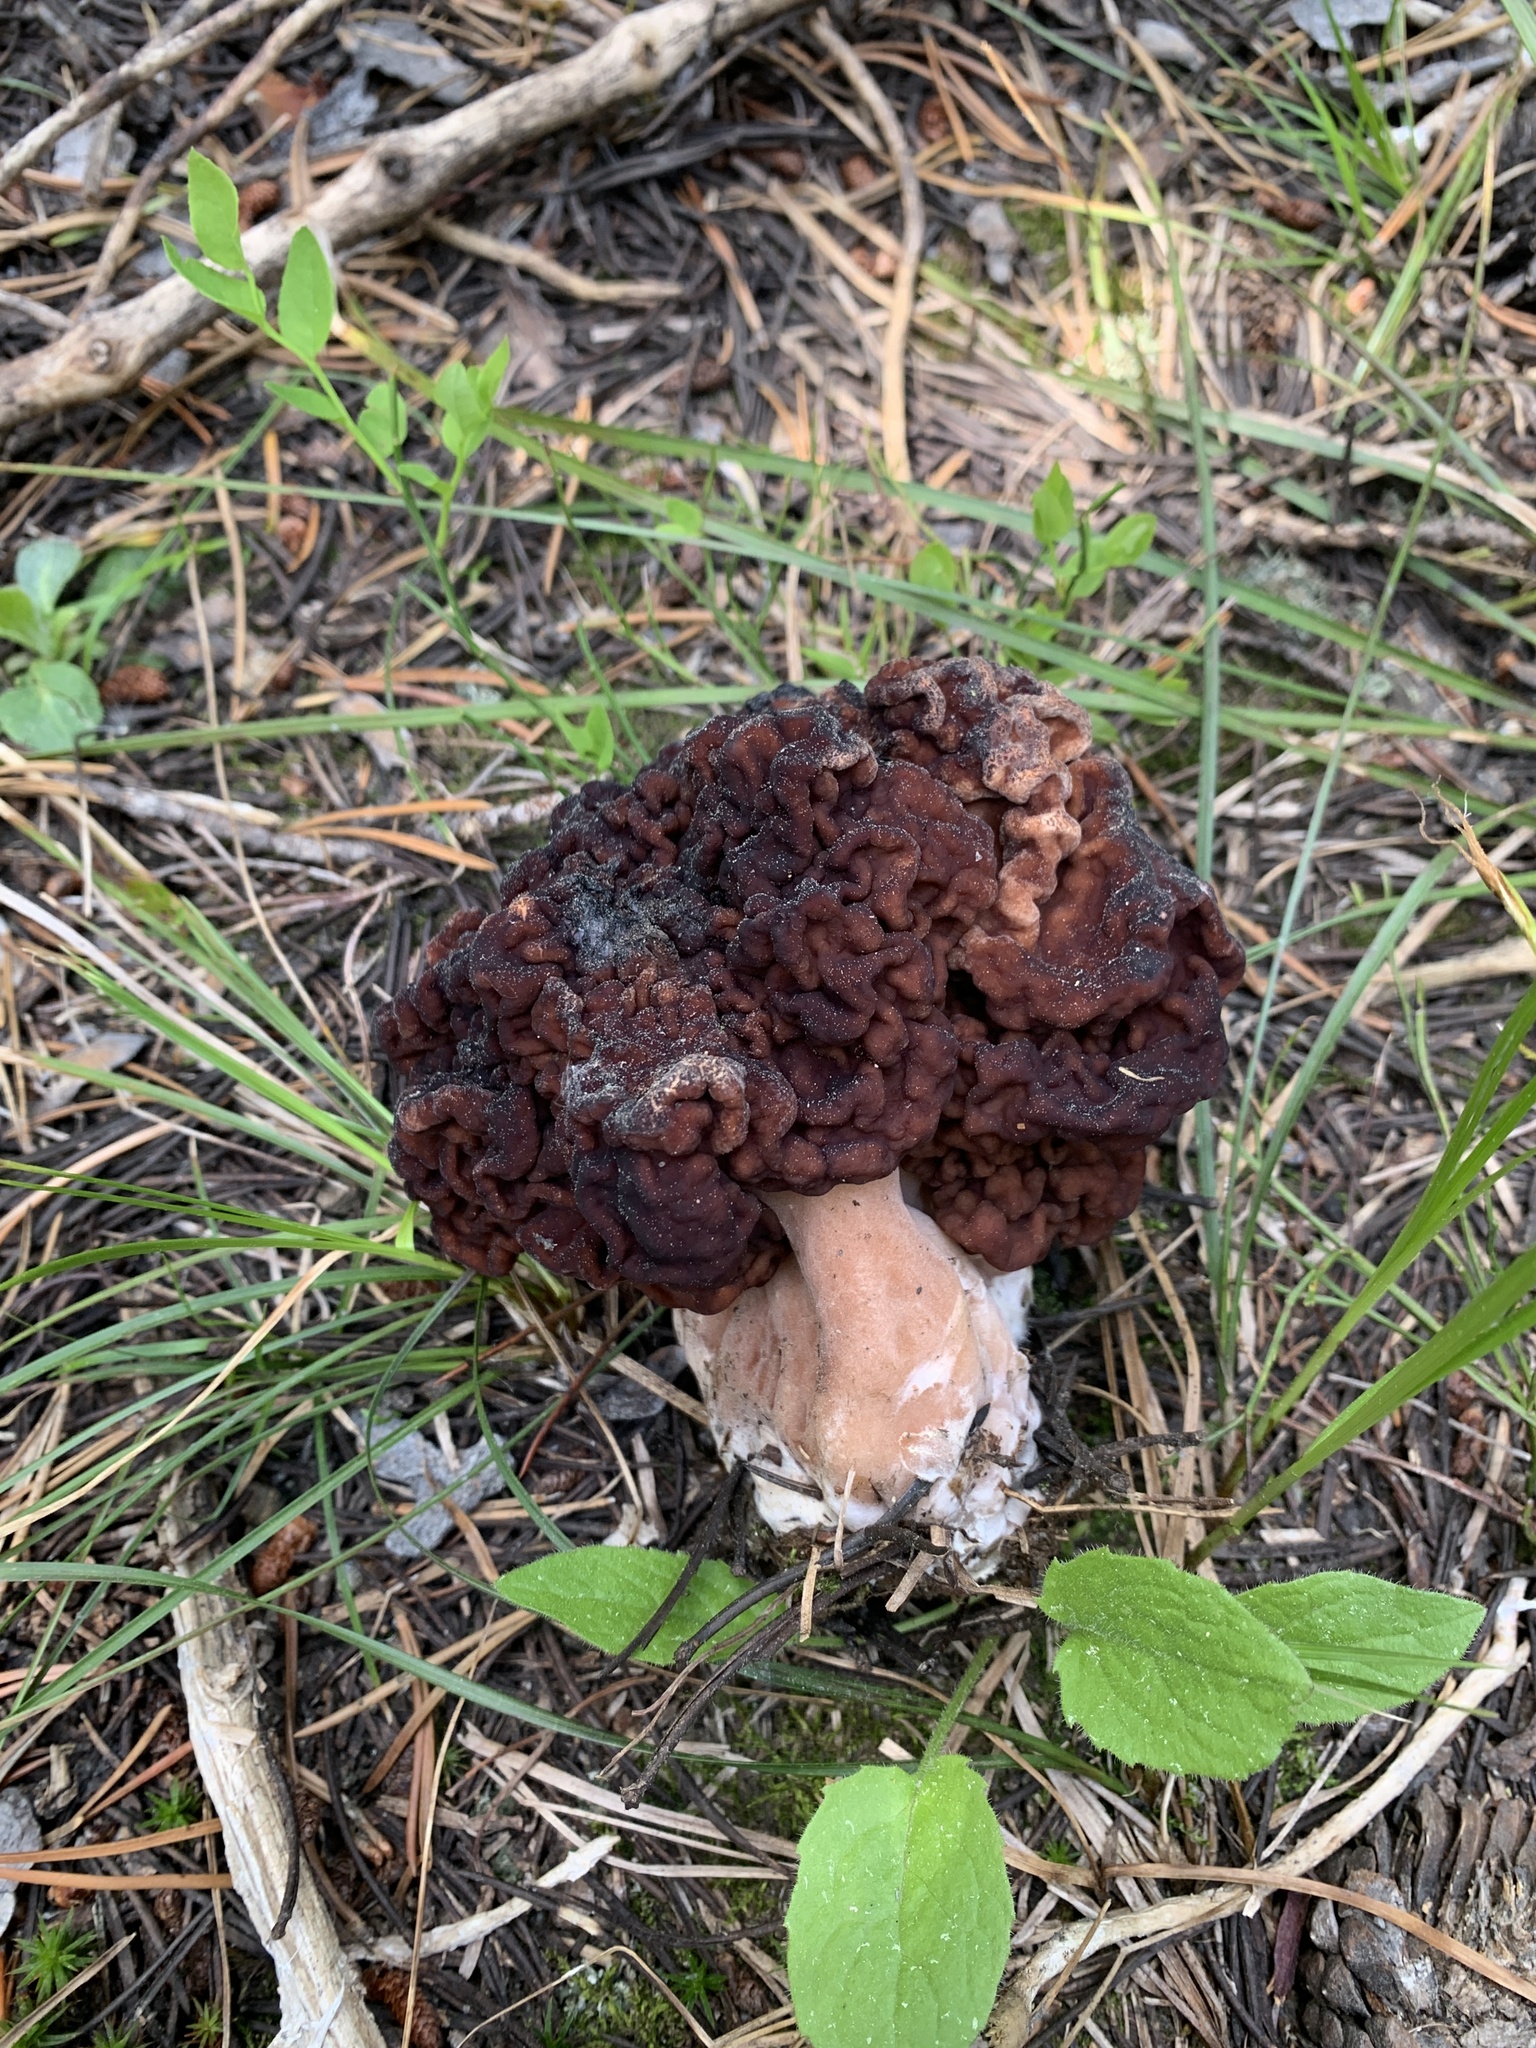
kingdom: Fungi
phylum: Ascomycota
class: Pezizomycetes
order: Pezizales
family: Discinaceae
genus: Gyromitra
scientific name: Gyromitra esculenta
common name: False morel
